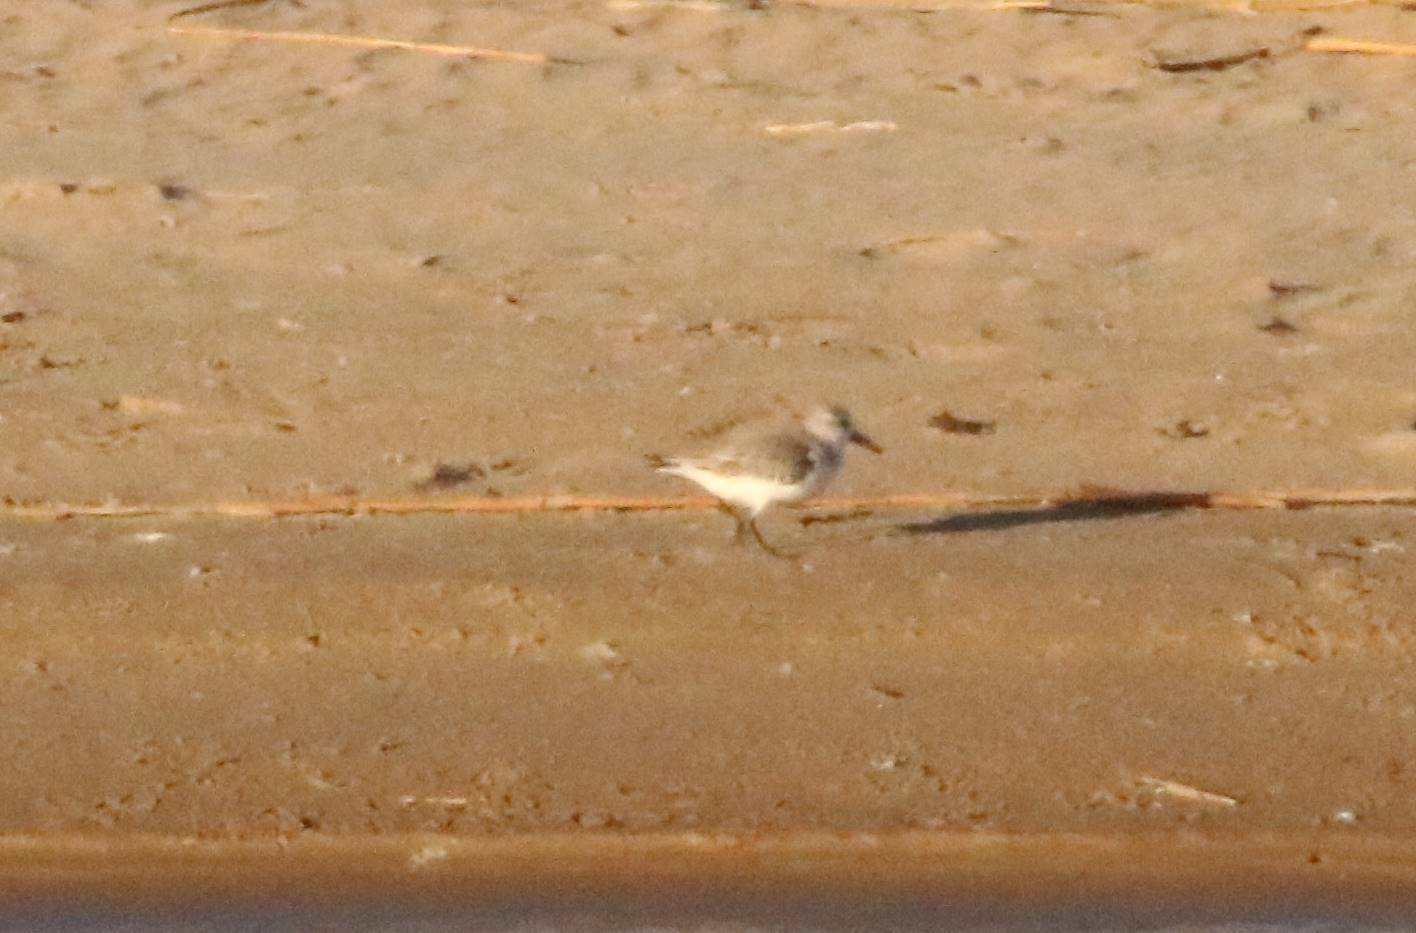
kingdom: Animalia
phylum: Chordata
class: Aves
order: Charadriiformes
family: Scolopacidae
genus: Calidris
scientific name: Calidris alba
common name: Sanderling
